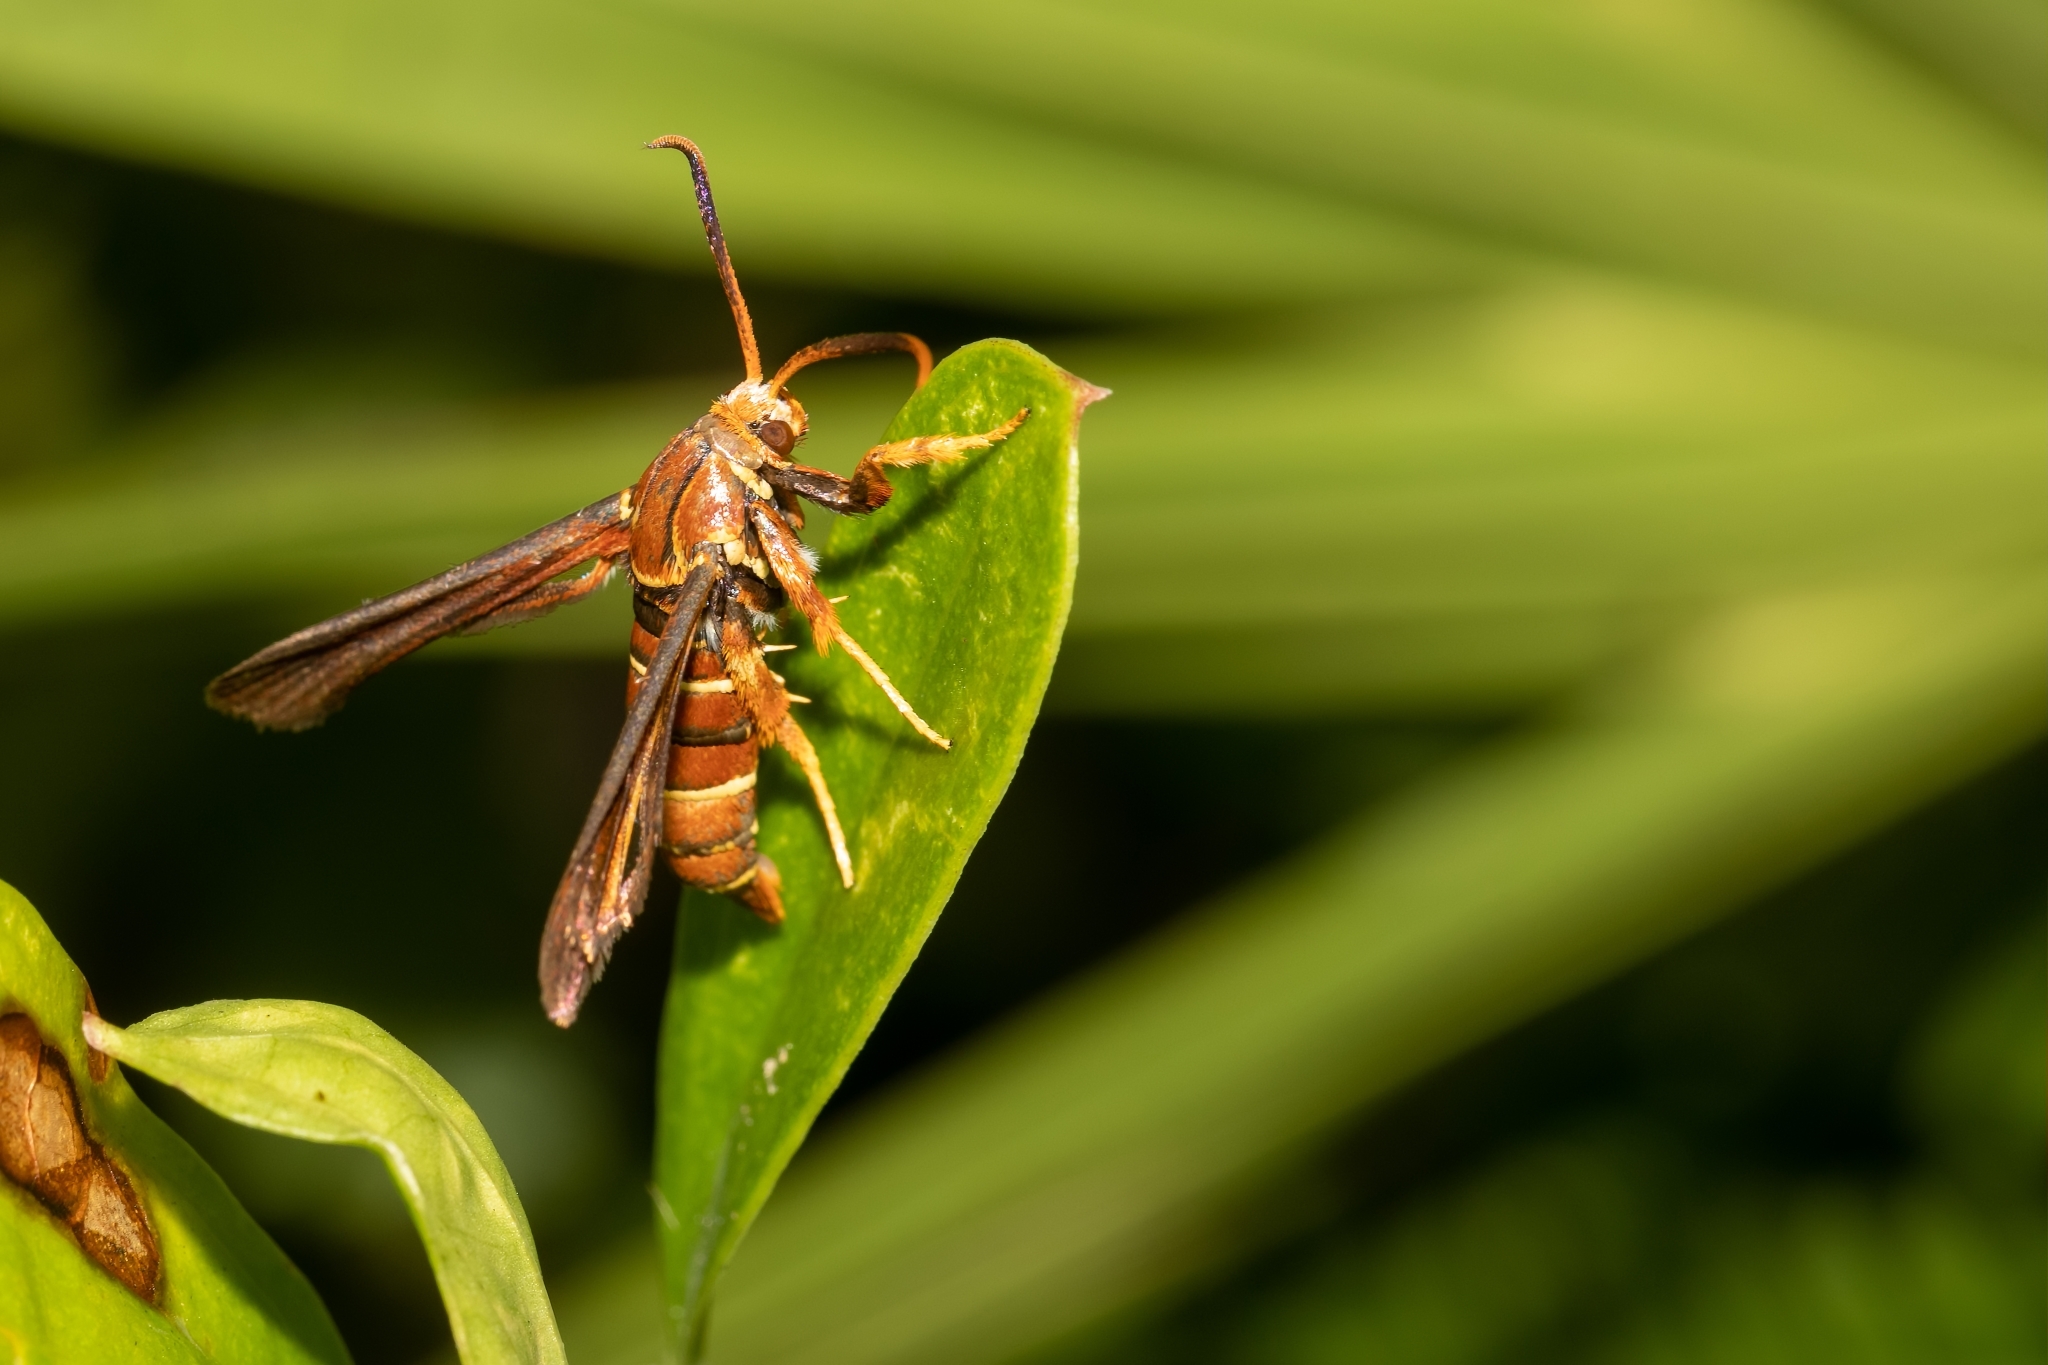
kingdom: Animalia
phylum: Arthropoda
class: Insecta
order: Lepidoptera
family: Sesiidae
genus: Vitacea
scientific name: Vitacea polistiformis
